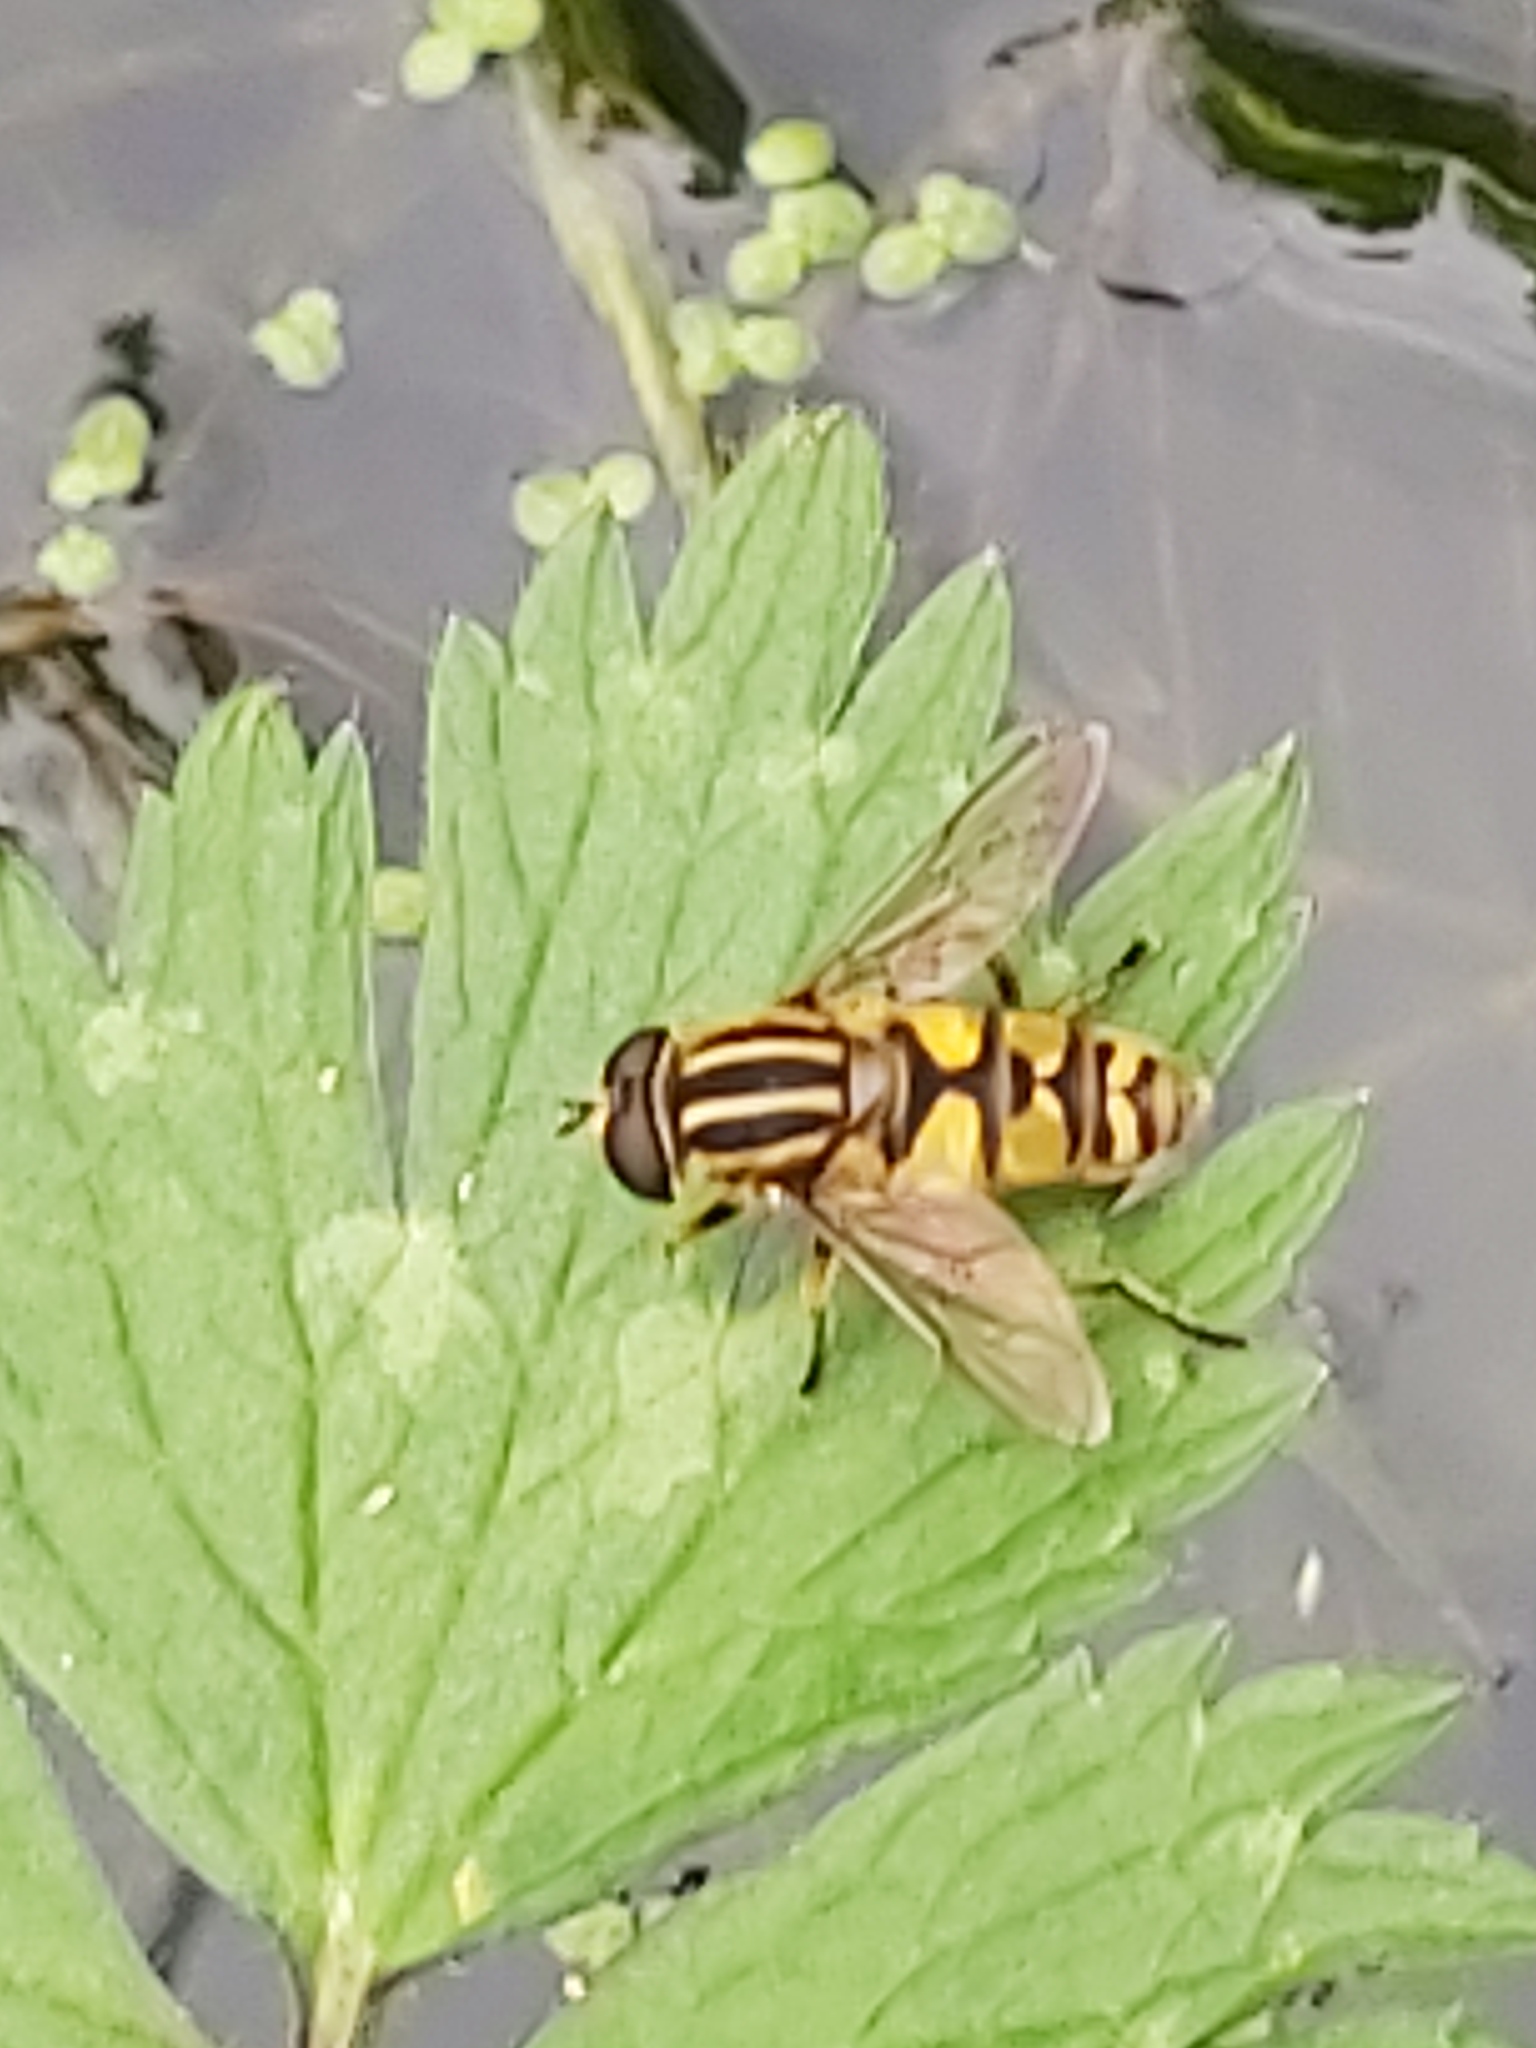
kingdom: Animalia
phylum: Arthropoda
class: Insecta
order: Diptera
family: Syrphidae
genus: Helophilus
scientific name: Helophilus pendulus
